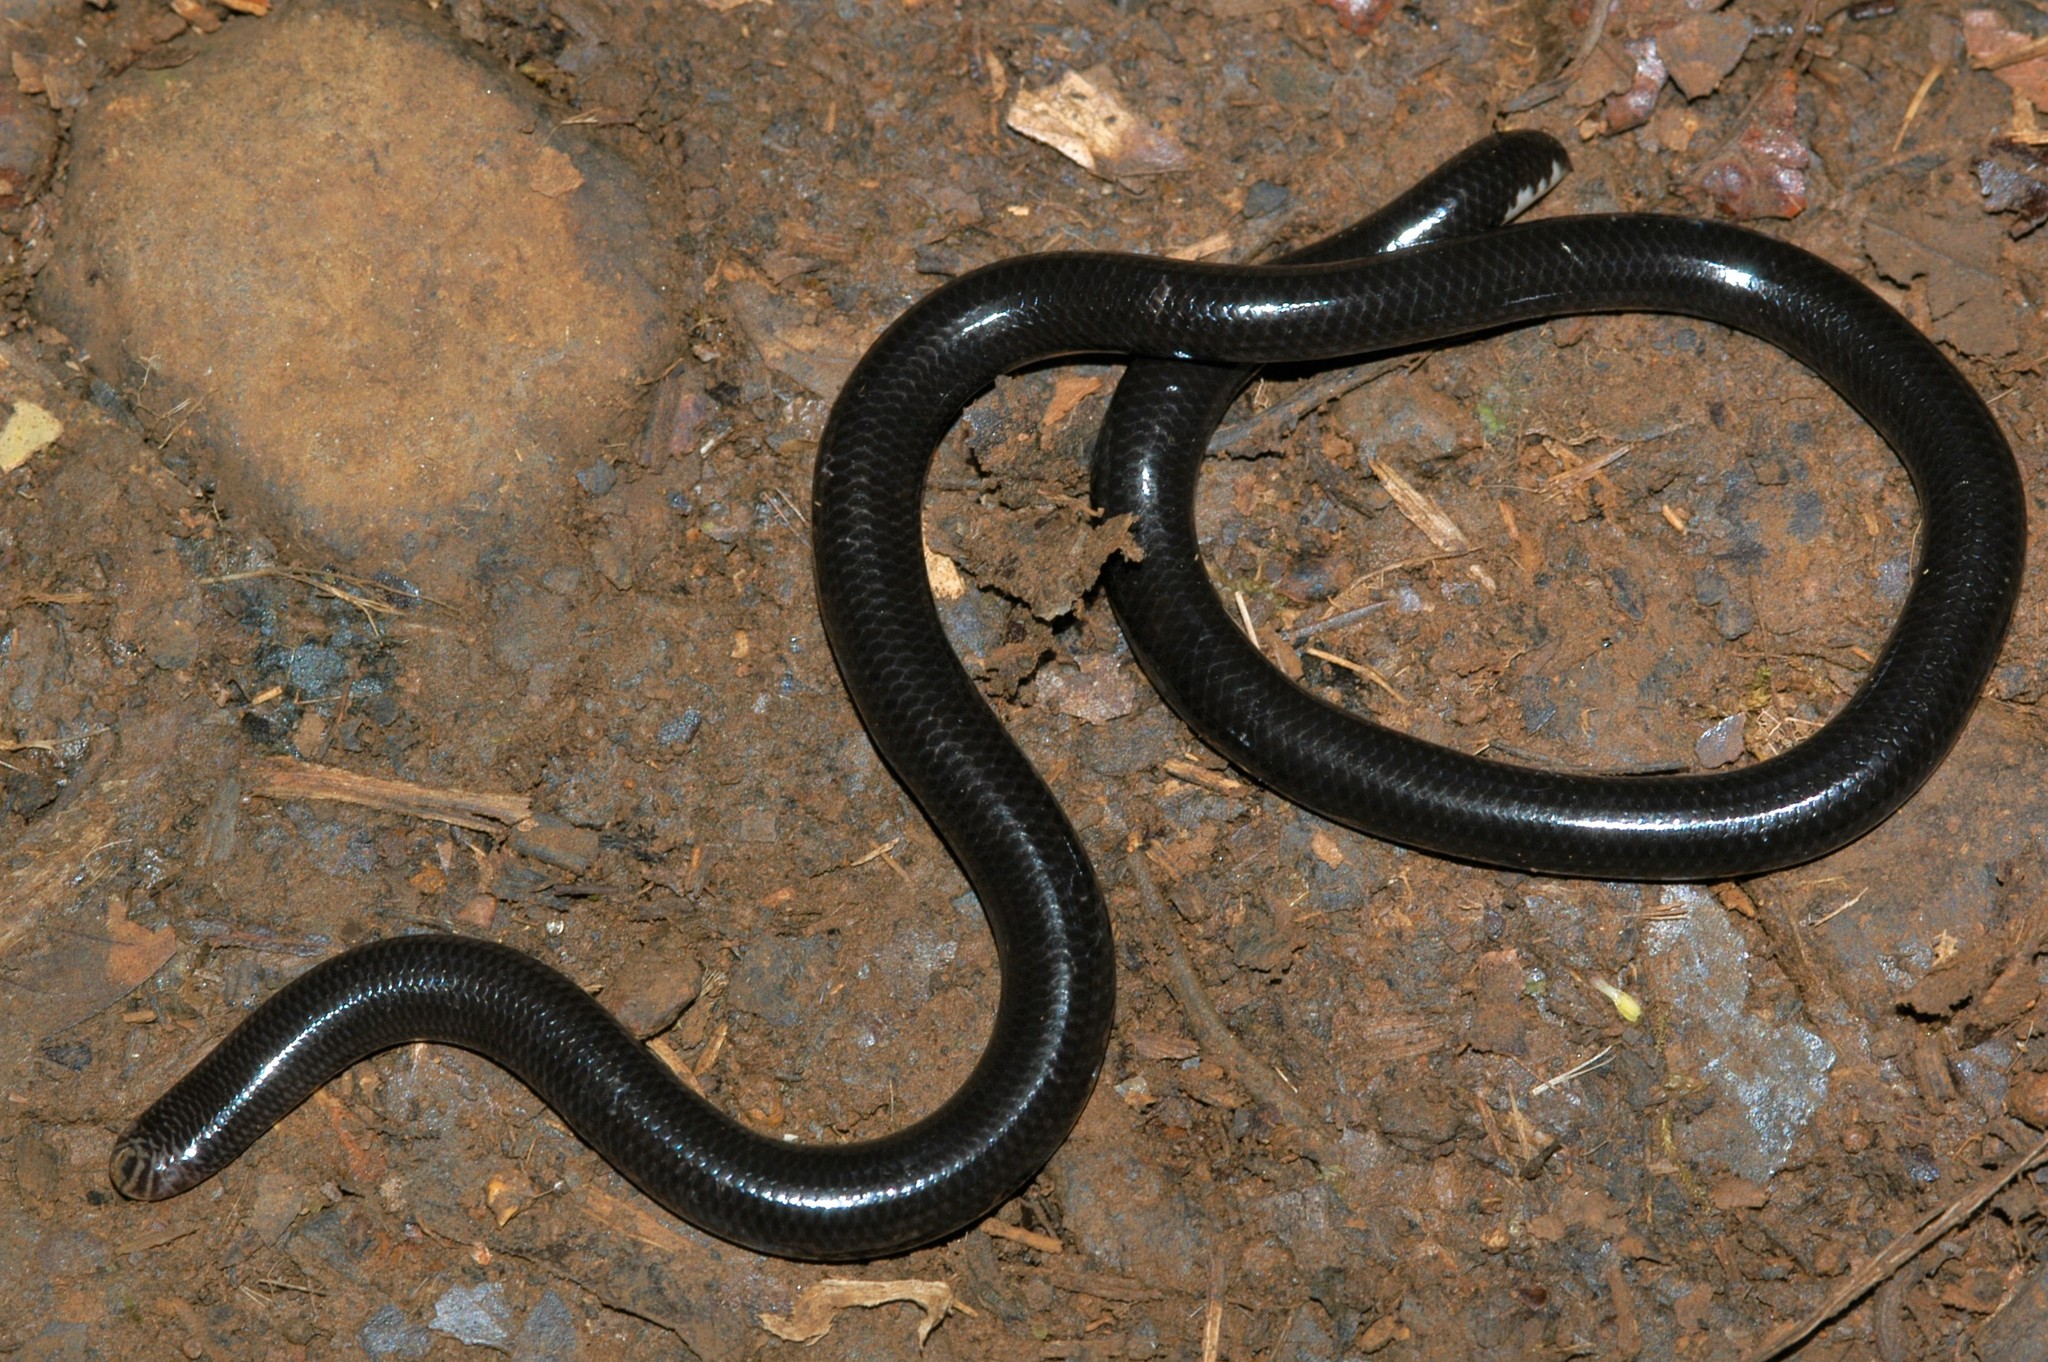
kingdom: Animalia
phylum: Chordata
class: Squamata
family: Typhlopidae
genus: Madatyphlops
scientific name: Madatyphlops microcephalus
